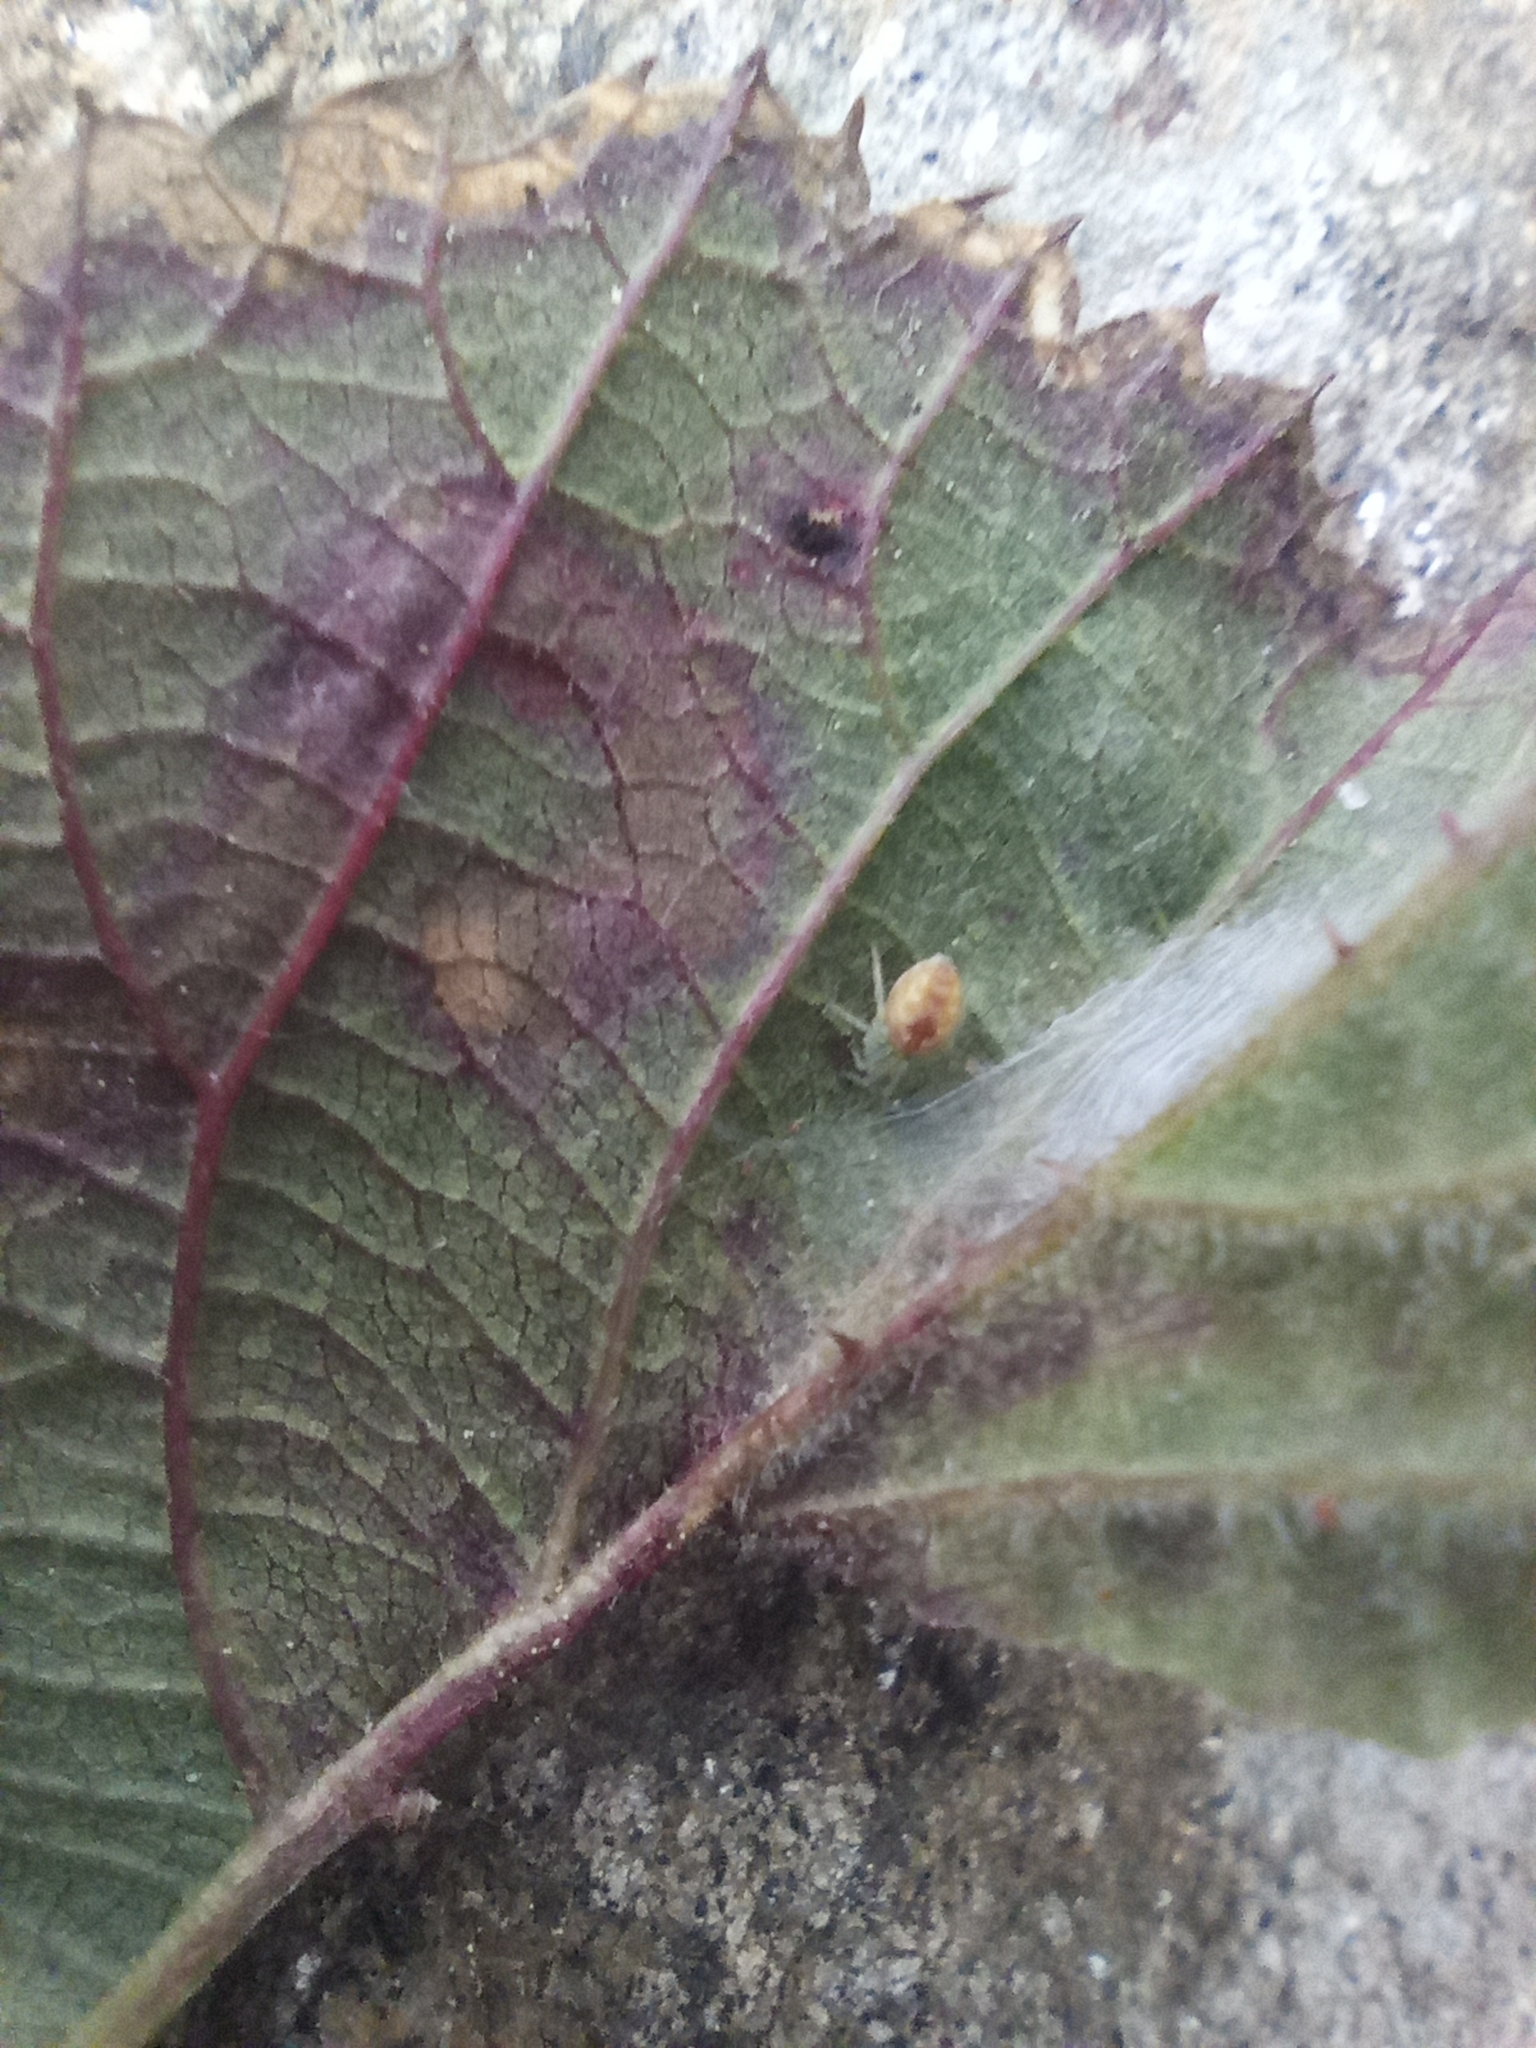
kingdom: Animalia
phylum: Arthropoda
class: Arachnida
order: Araneae
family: Dictynidae
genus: Nigma
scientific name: Nigma puella
